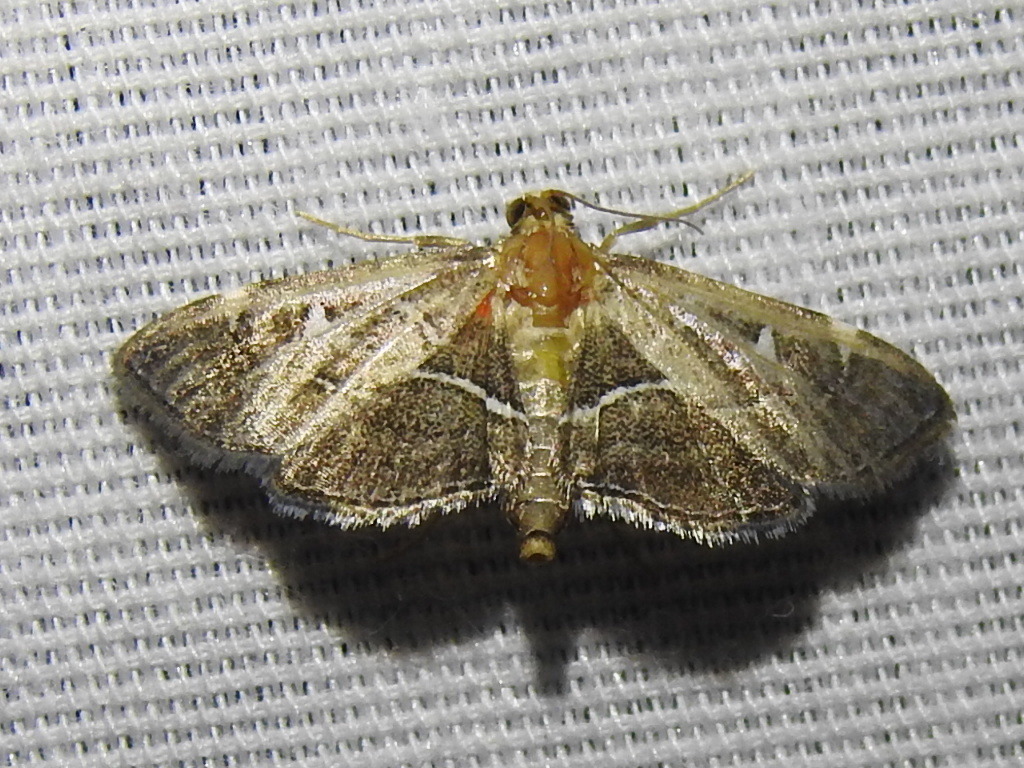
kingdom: Animalia
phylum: Arthropoda
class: Insecta
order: Lepidoptera
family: Crambidae
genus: Lamprosema
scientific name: Lamprosema victoriae
